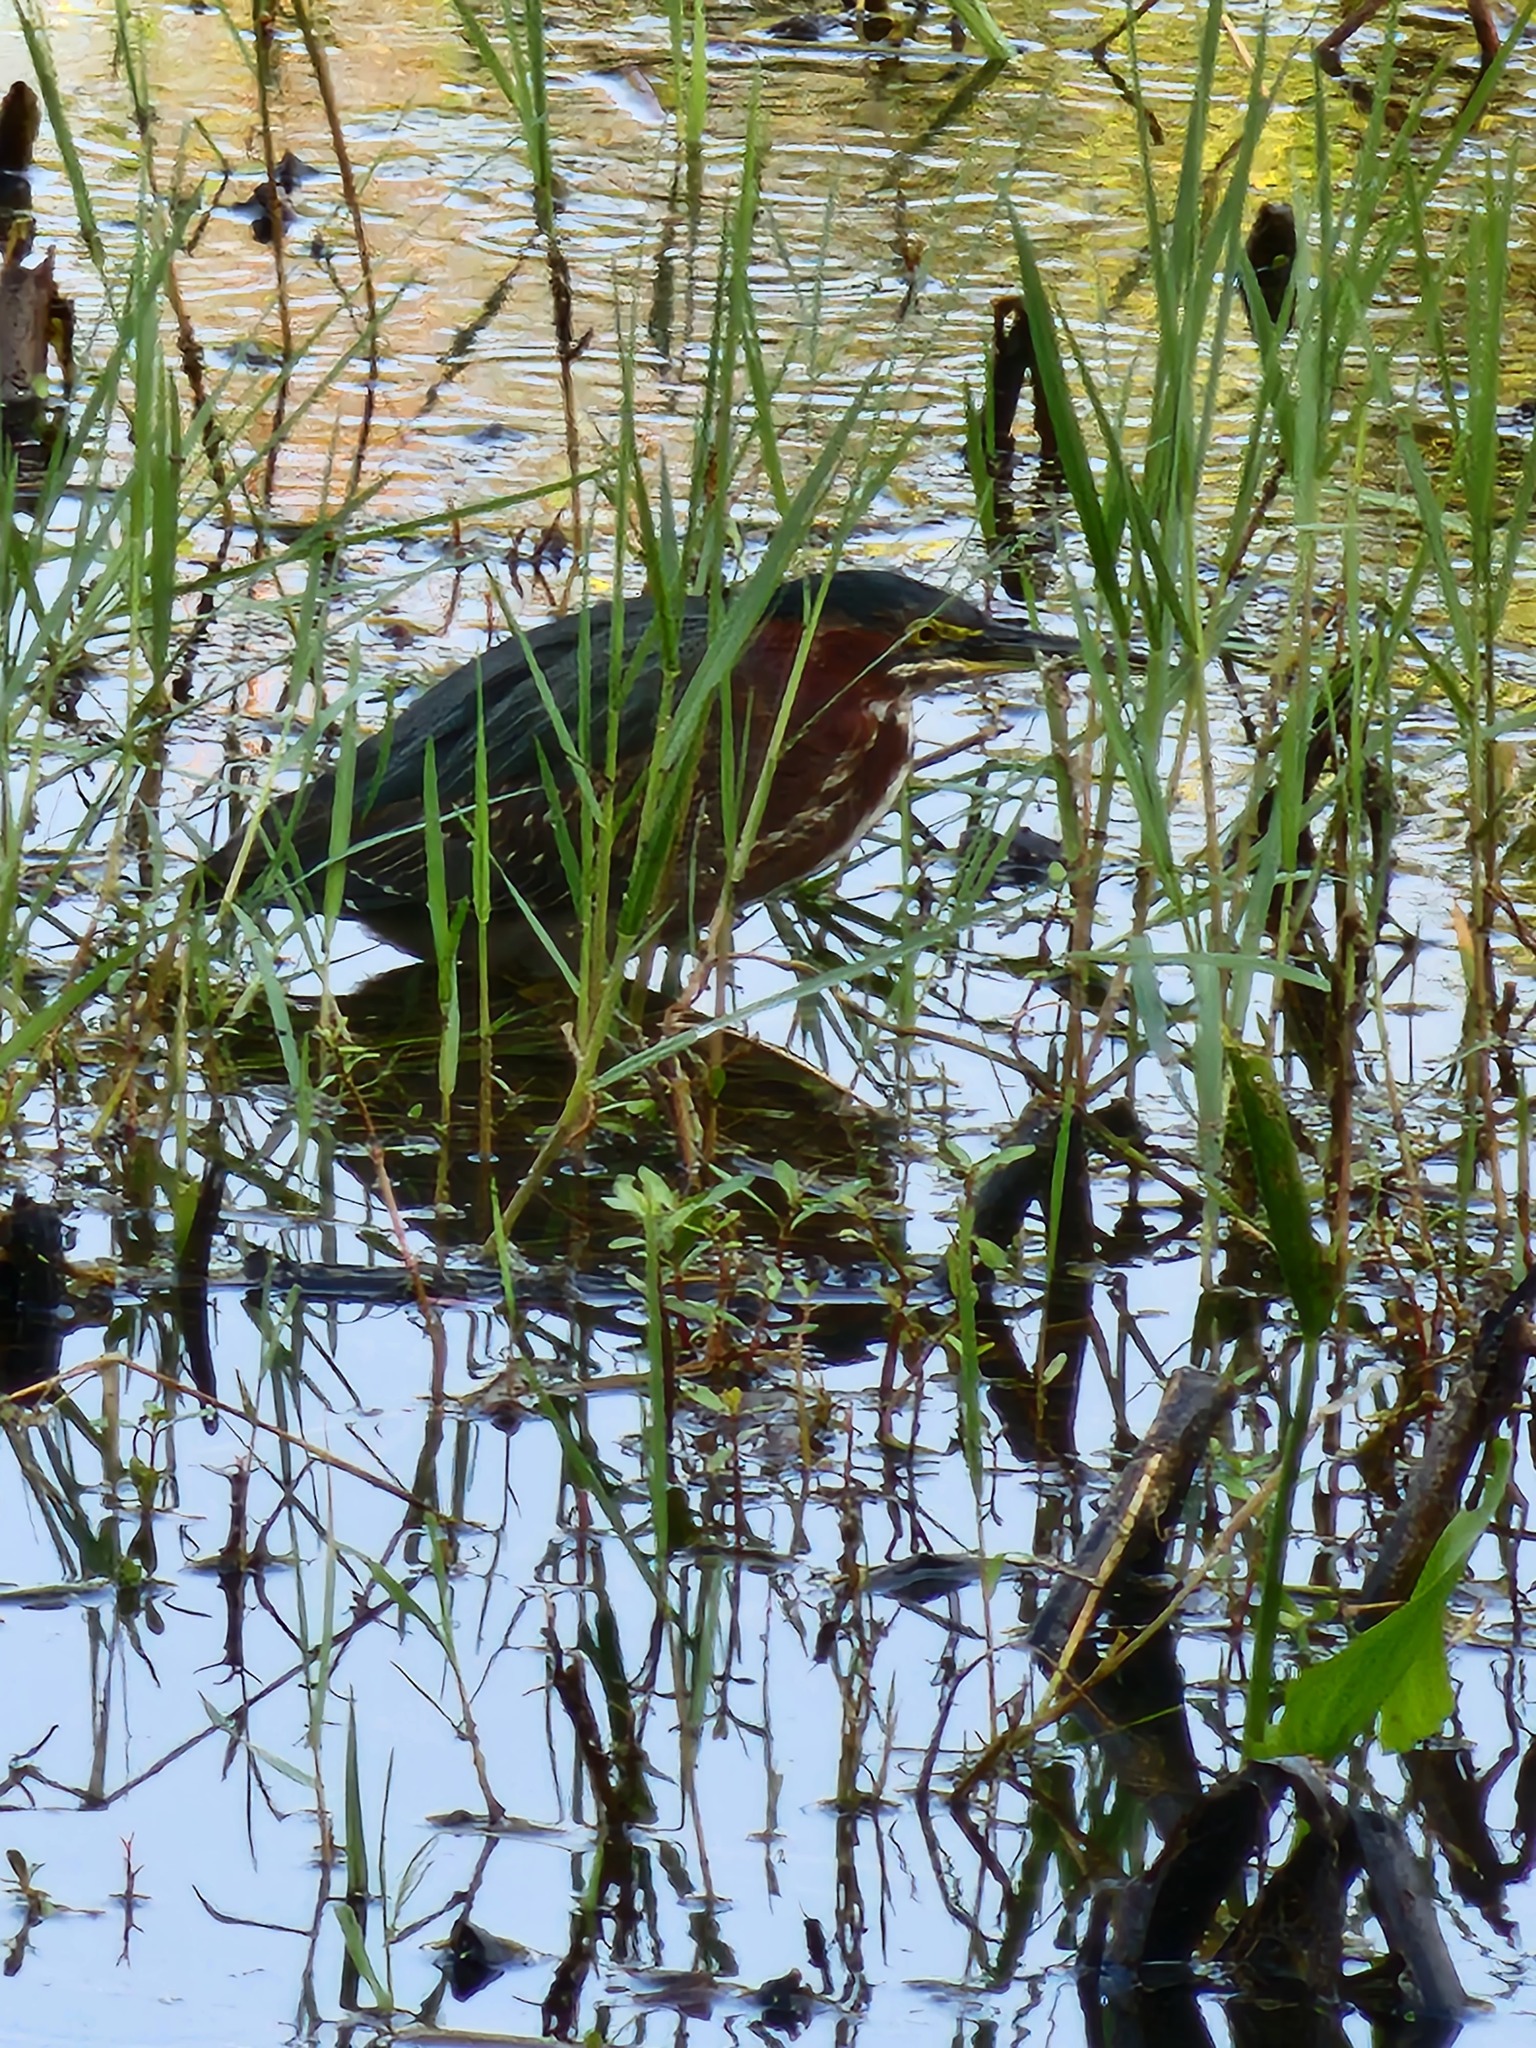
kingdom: Animalia
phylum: Chordata
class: Aves
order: Pelecaniformes
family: Ardeidae
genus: Butorides
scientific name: Butorides virescens
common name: Green heron
